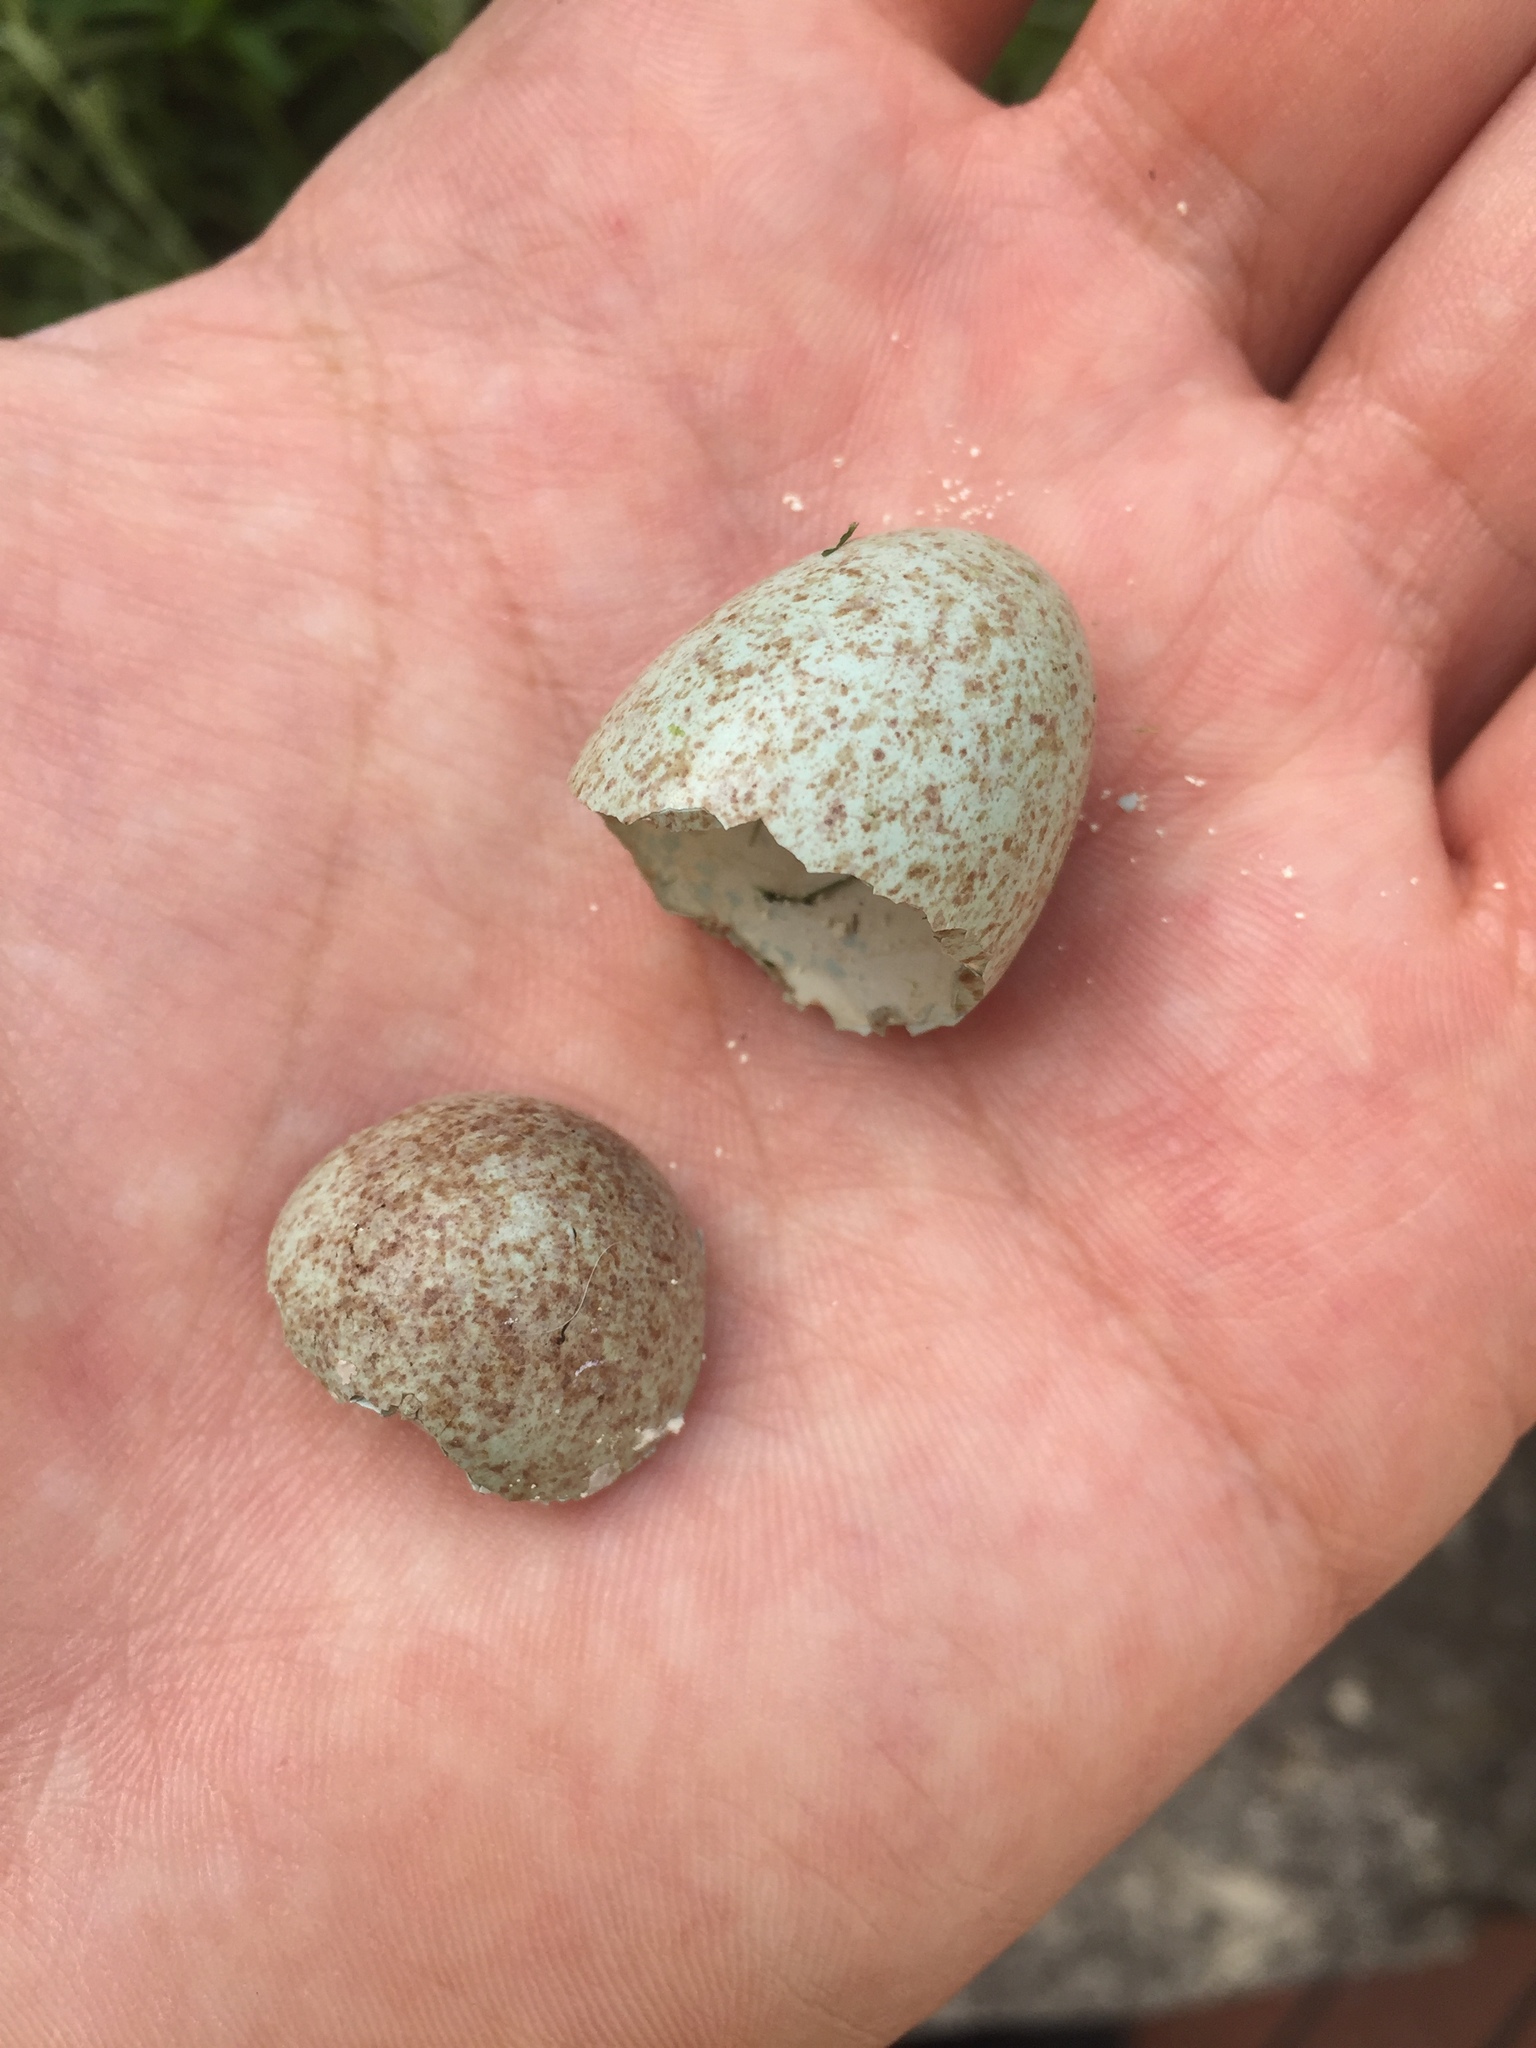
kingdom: Animalia
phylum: Chordata
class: Aves
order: Passeriformes
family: Turdidae
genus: Turdus
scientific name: Turdus merula
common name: Common blackbird
